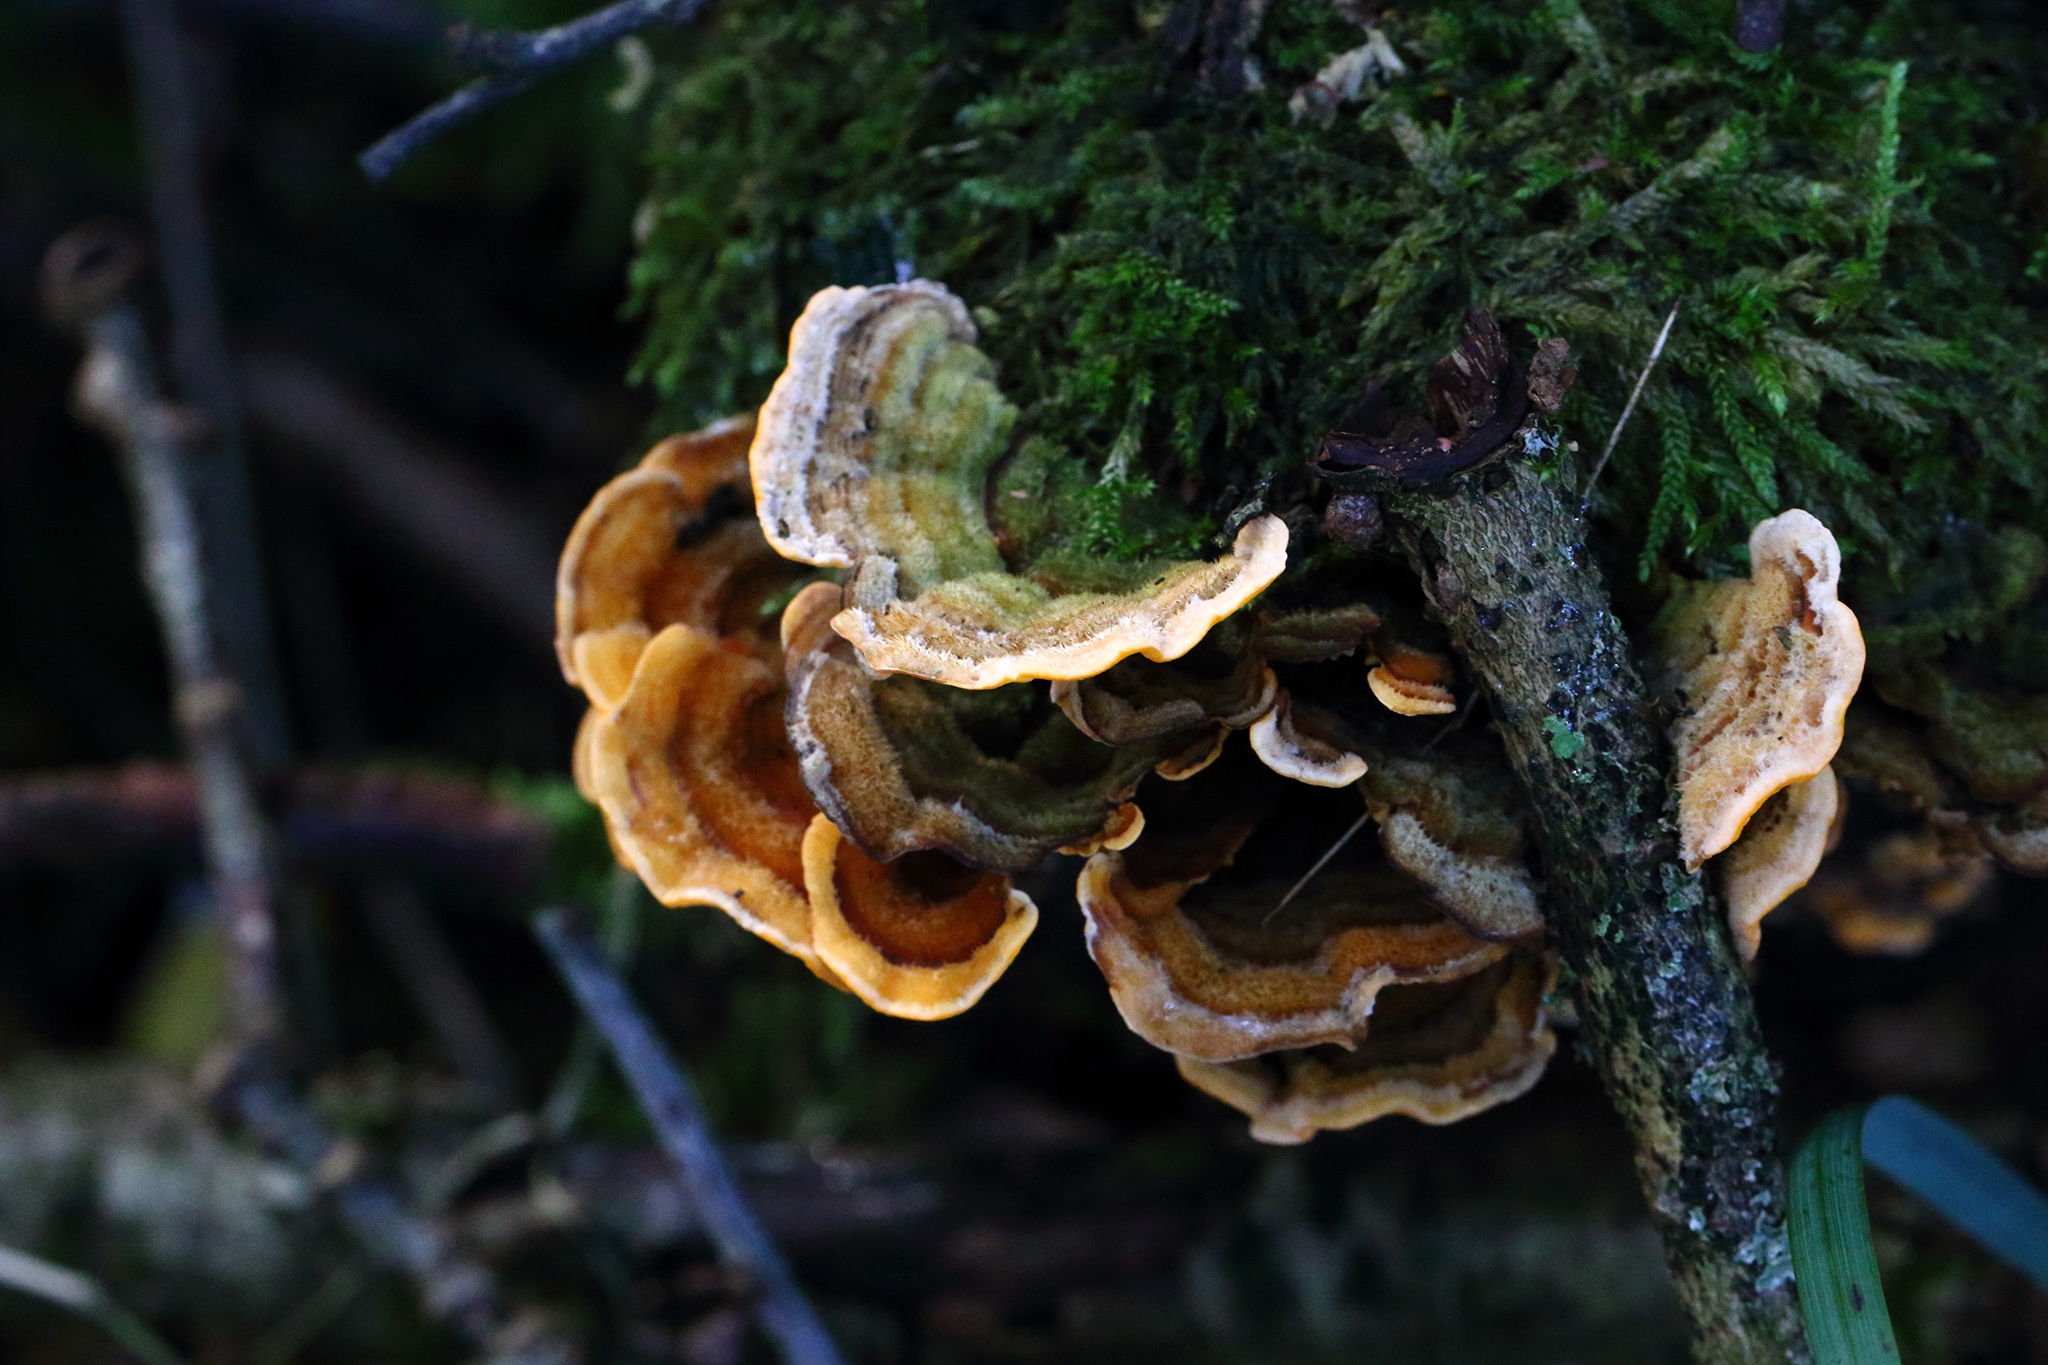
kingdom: Fungi
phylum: Basidiomycota
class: Agaricomycetes
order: Russulales
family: Stereaceae
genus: Stereum
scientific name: Stereum hirsutum
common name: Hairy curtain crust
